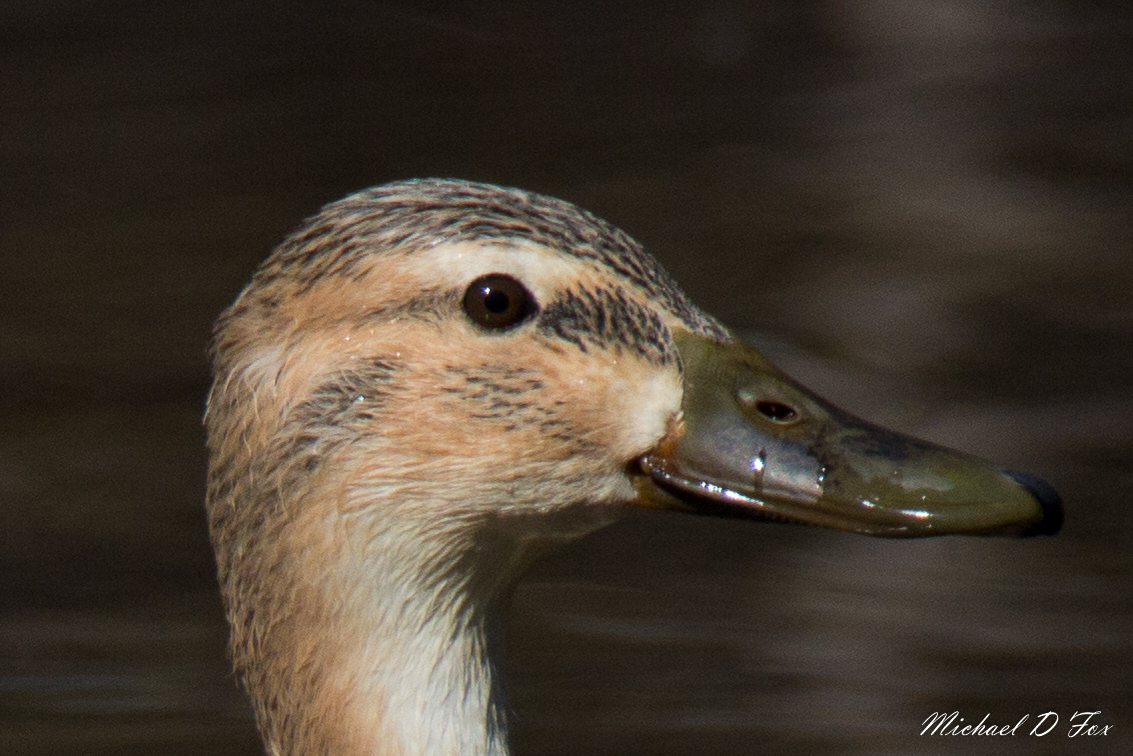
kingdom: Animalia
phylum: Chordata
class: Aves
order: Anseriformes
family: Anatidae
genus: Anas
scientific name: Anas platyrhynchos
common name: Mallard
